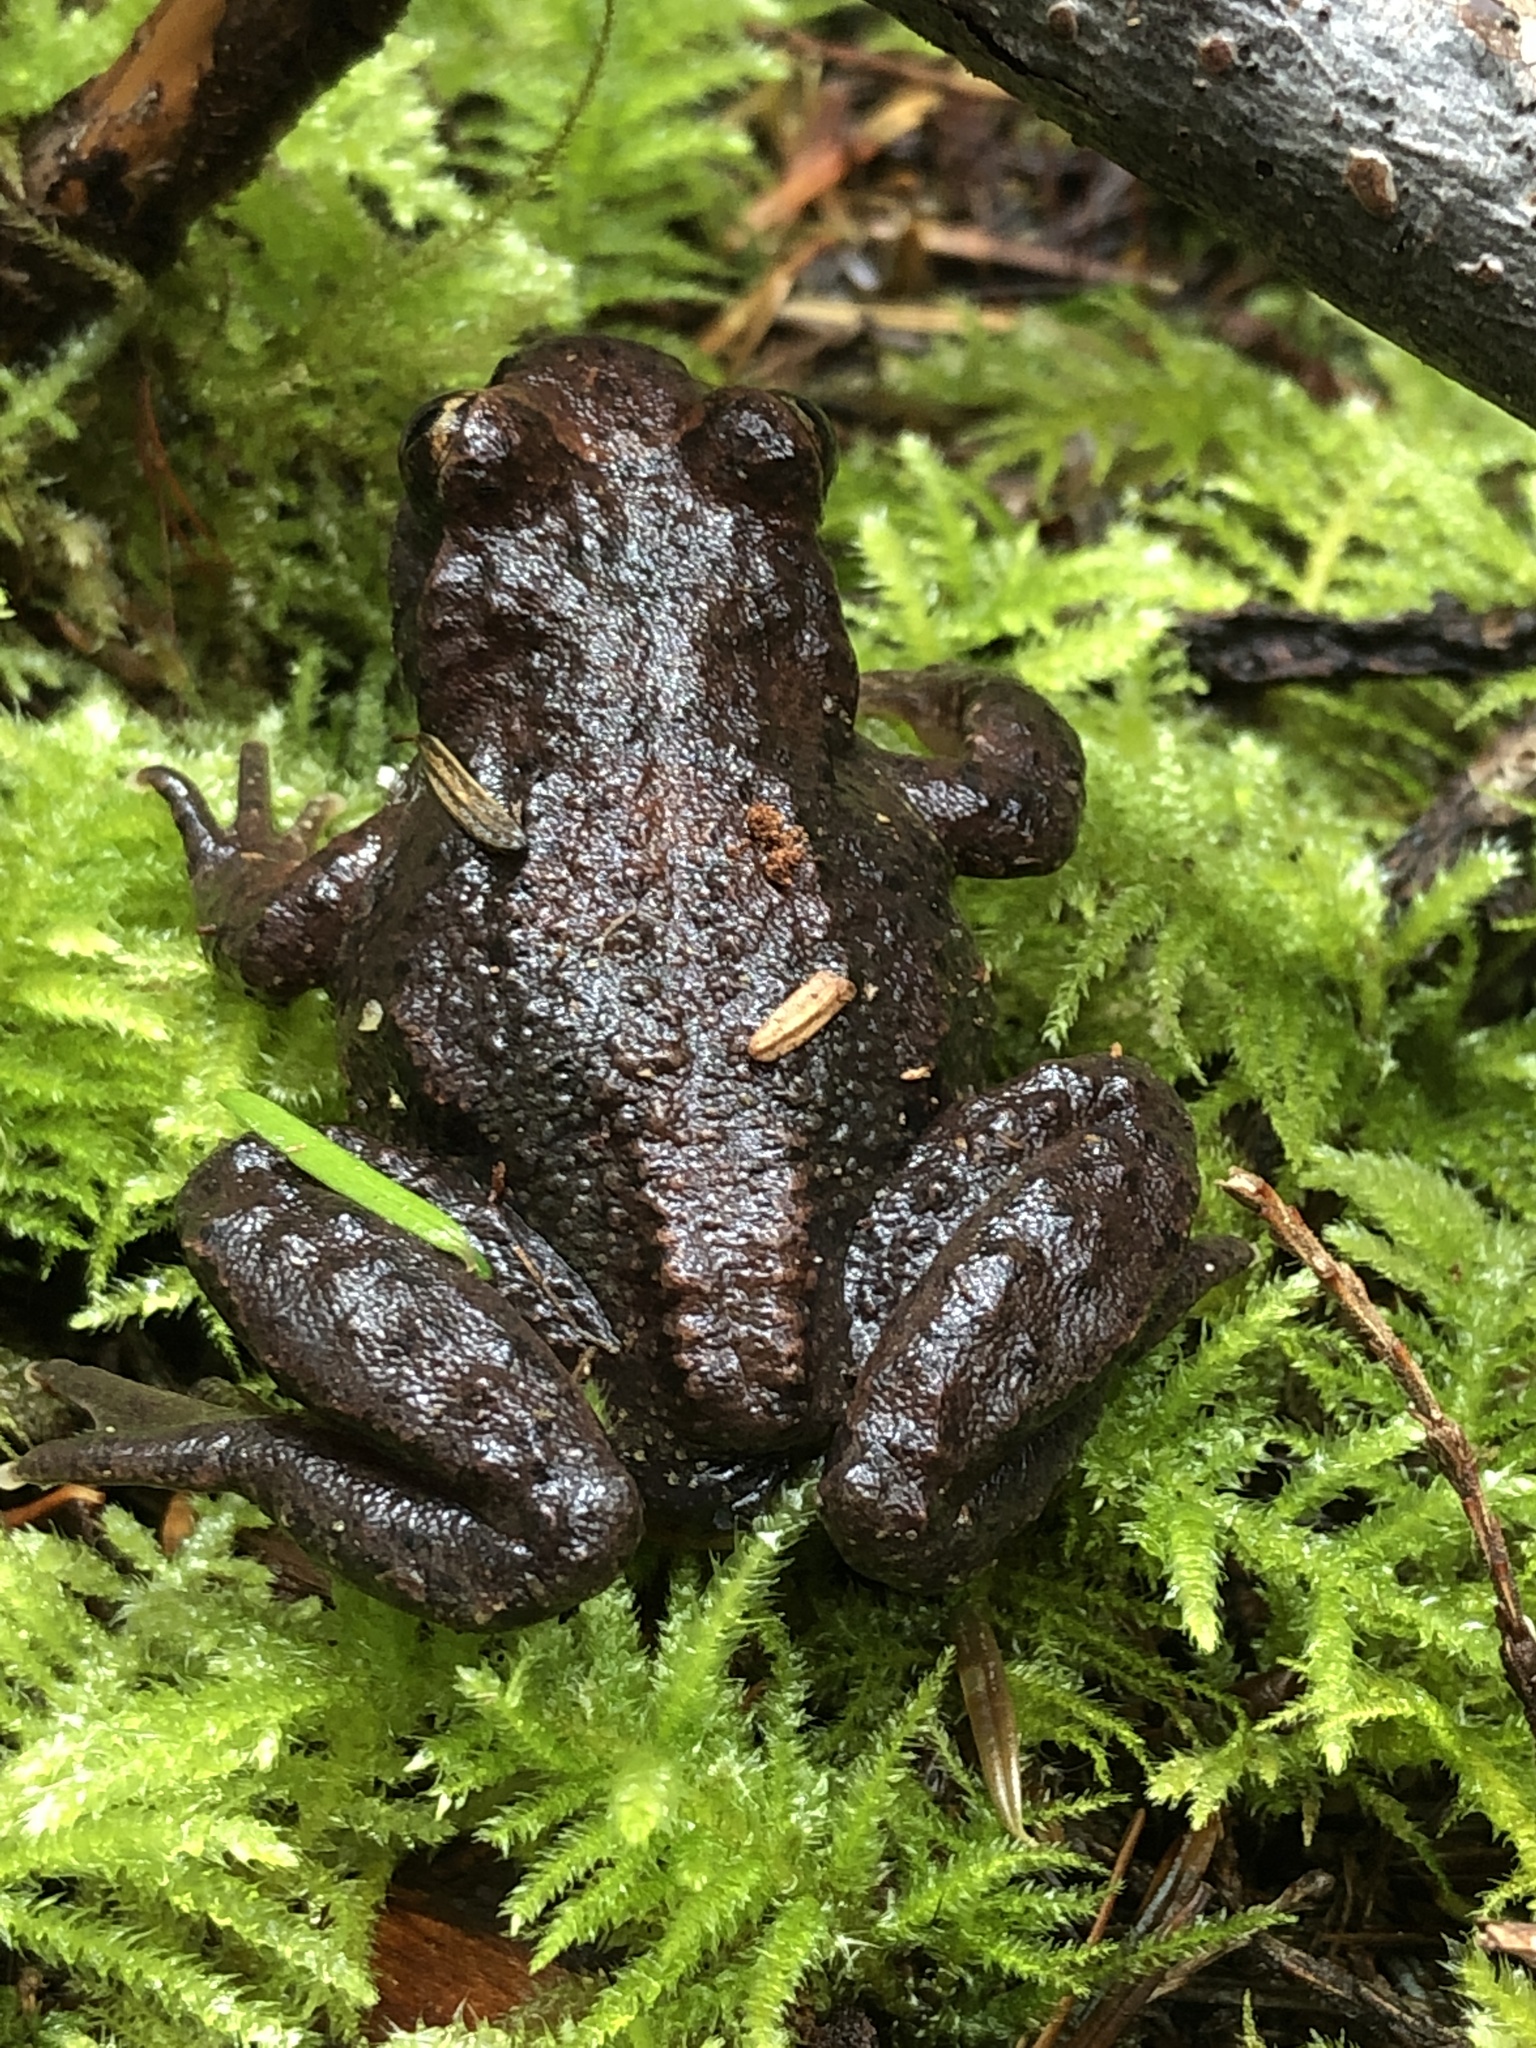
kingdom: Animalia
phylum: Chordata
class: Amphibia
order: Anura
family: Ascaphidae
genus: Ascaphus
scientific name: Ascaphus truei
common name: Tailed frog
